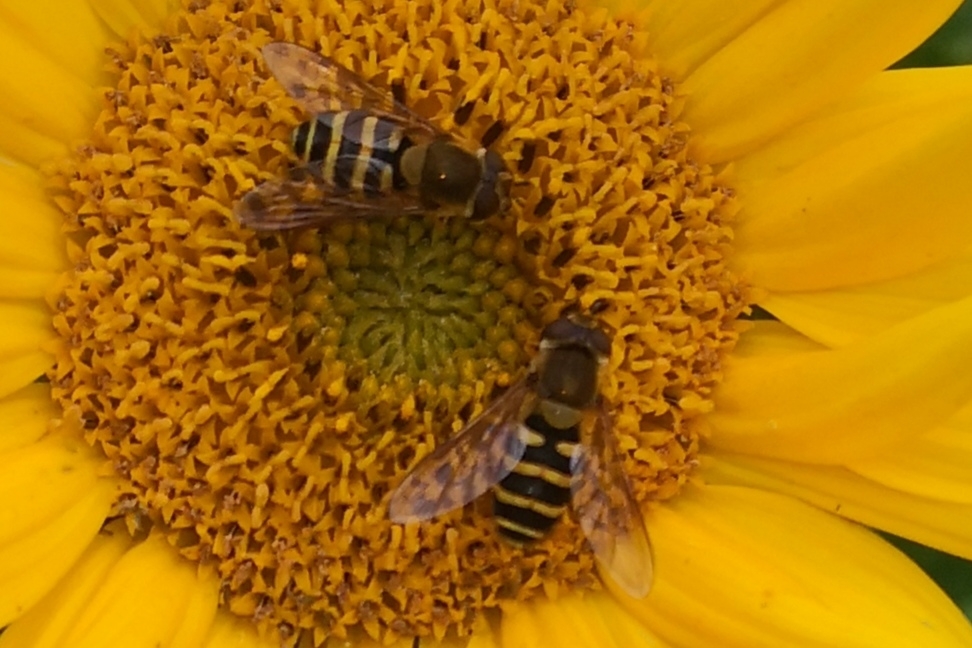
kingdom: Animalia
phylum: Arthropoda
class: Insecta
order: Diptera
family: Syrphidae
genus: Syrphus
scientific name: Syrphus
